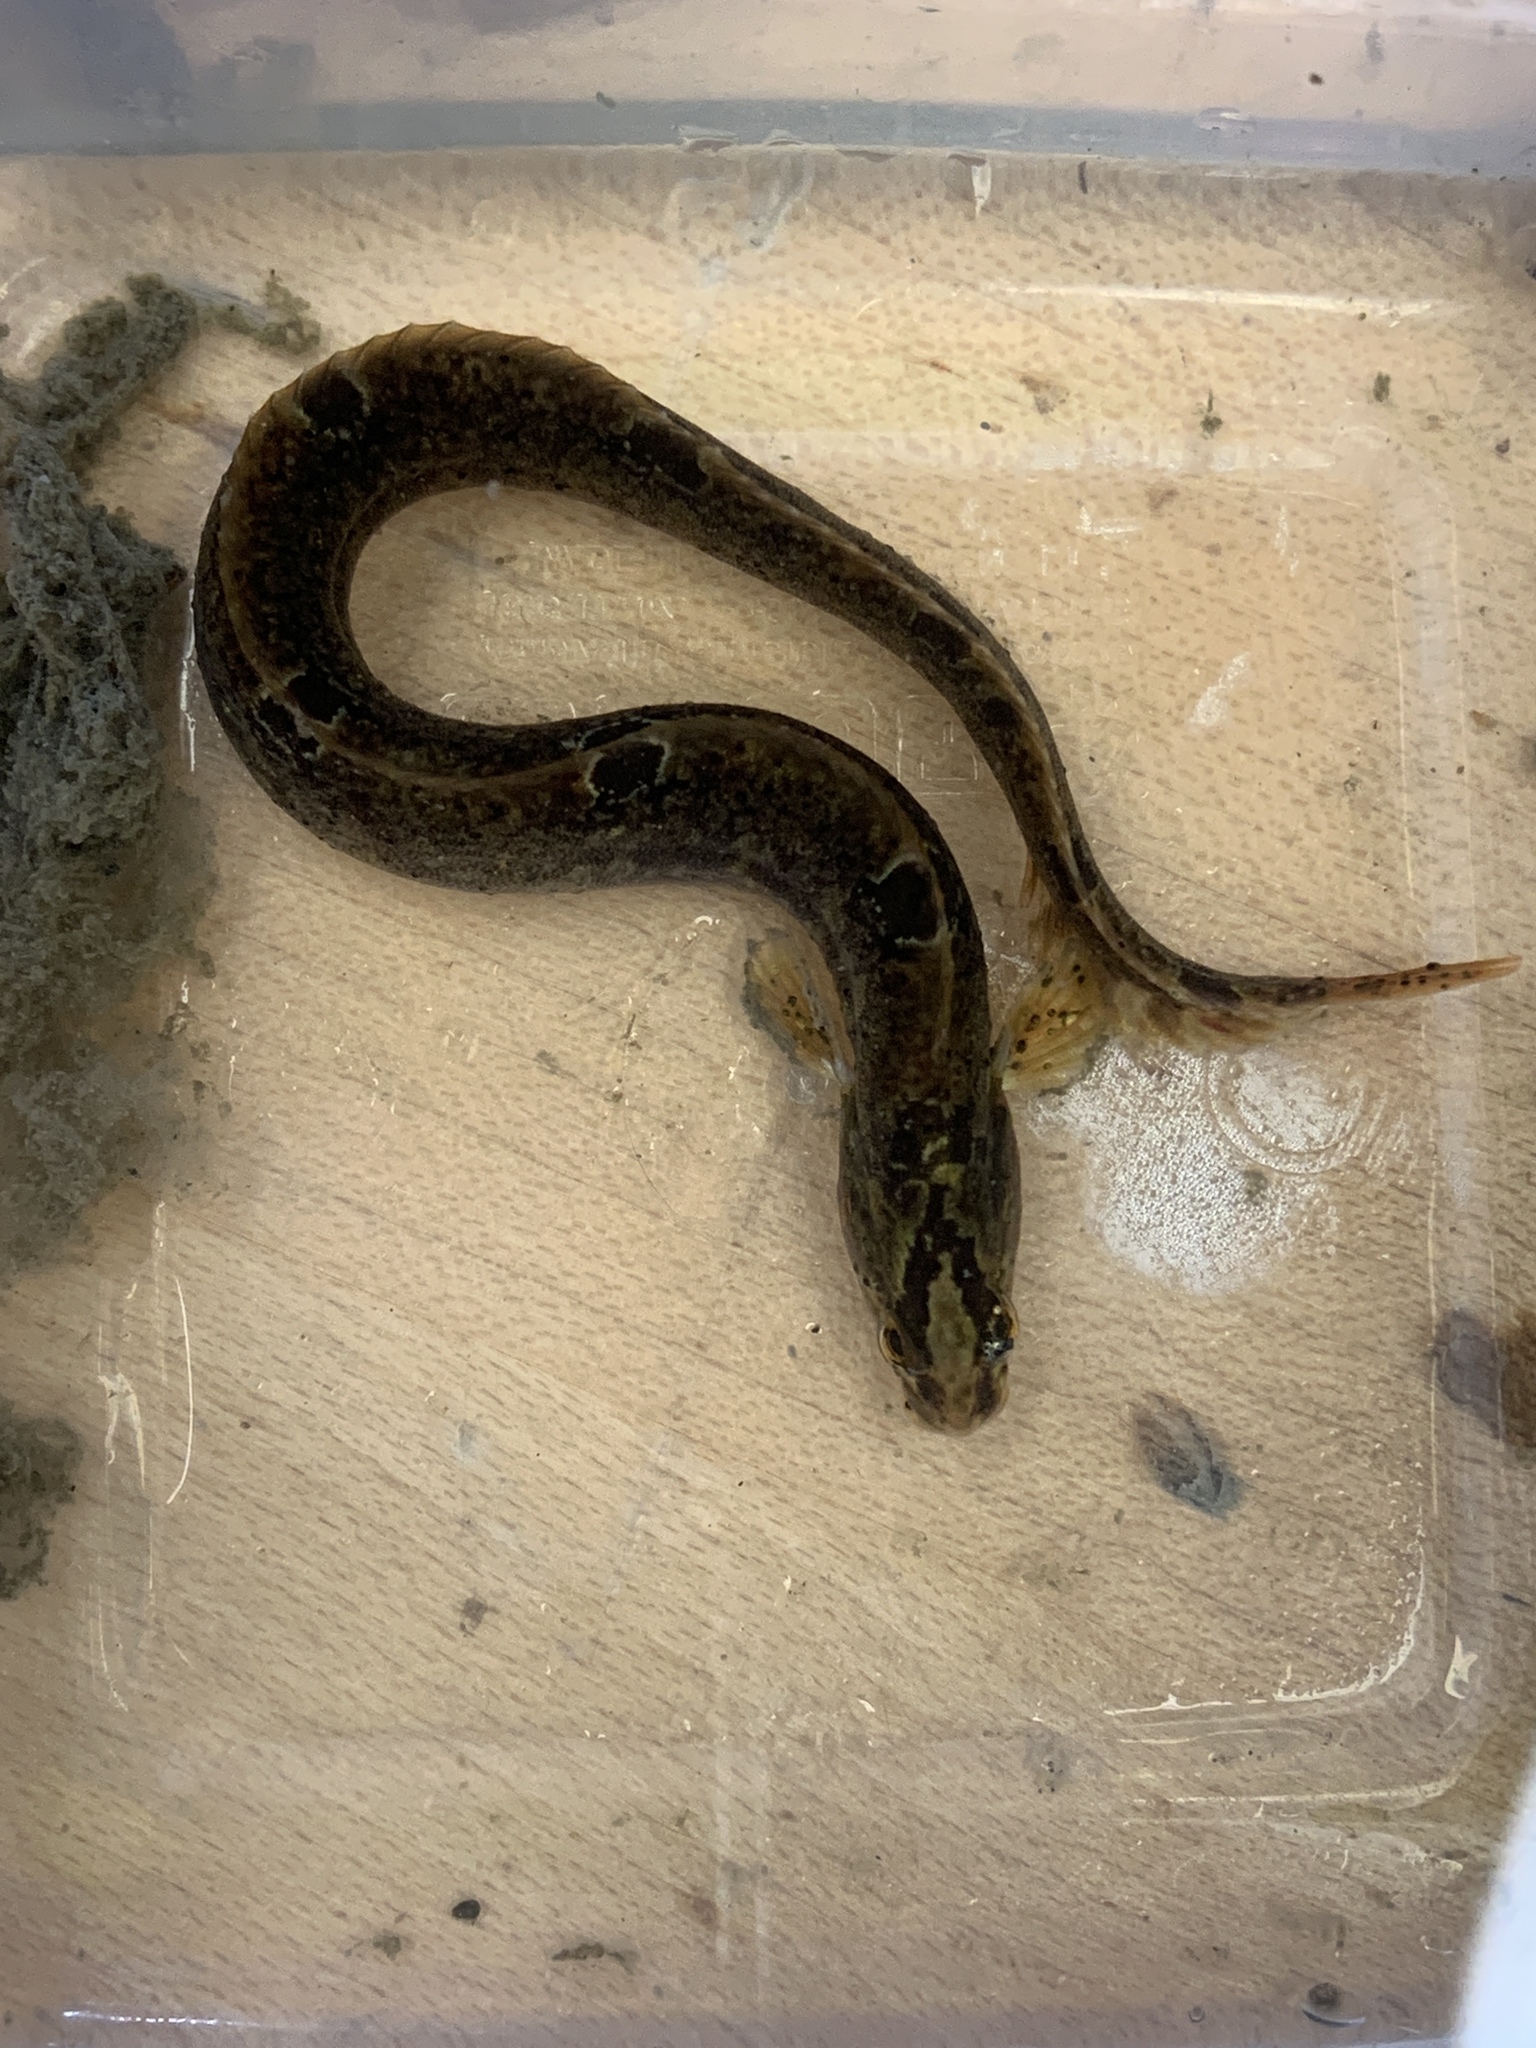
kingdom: Animalia
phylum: Chordata
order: Perciformes
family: Pholidae
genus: Pholis
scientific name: Pholis gunnellus
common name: Butterfish
